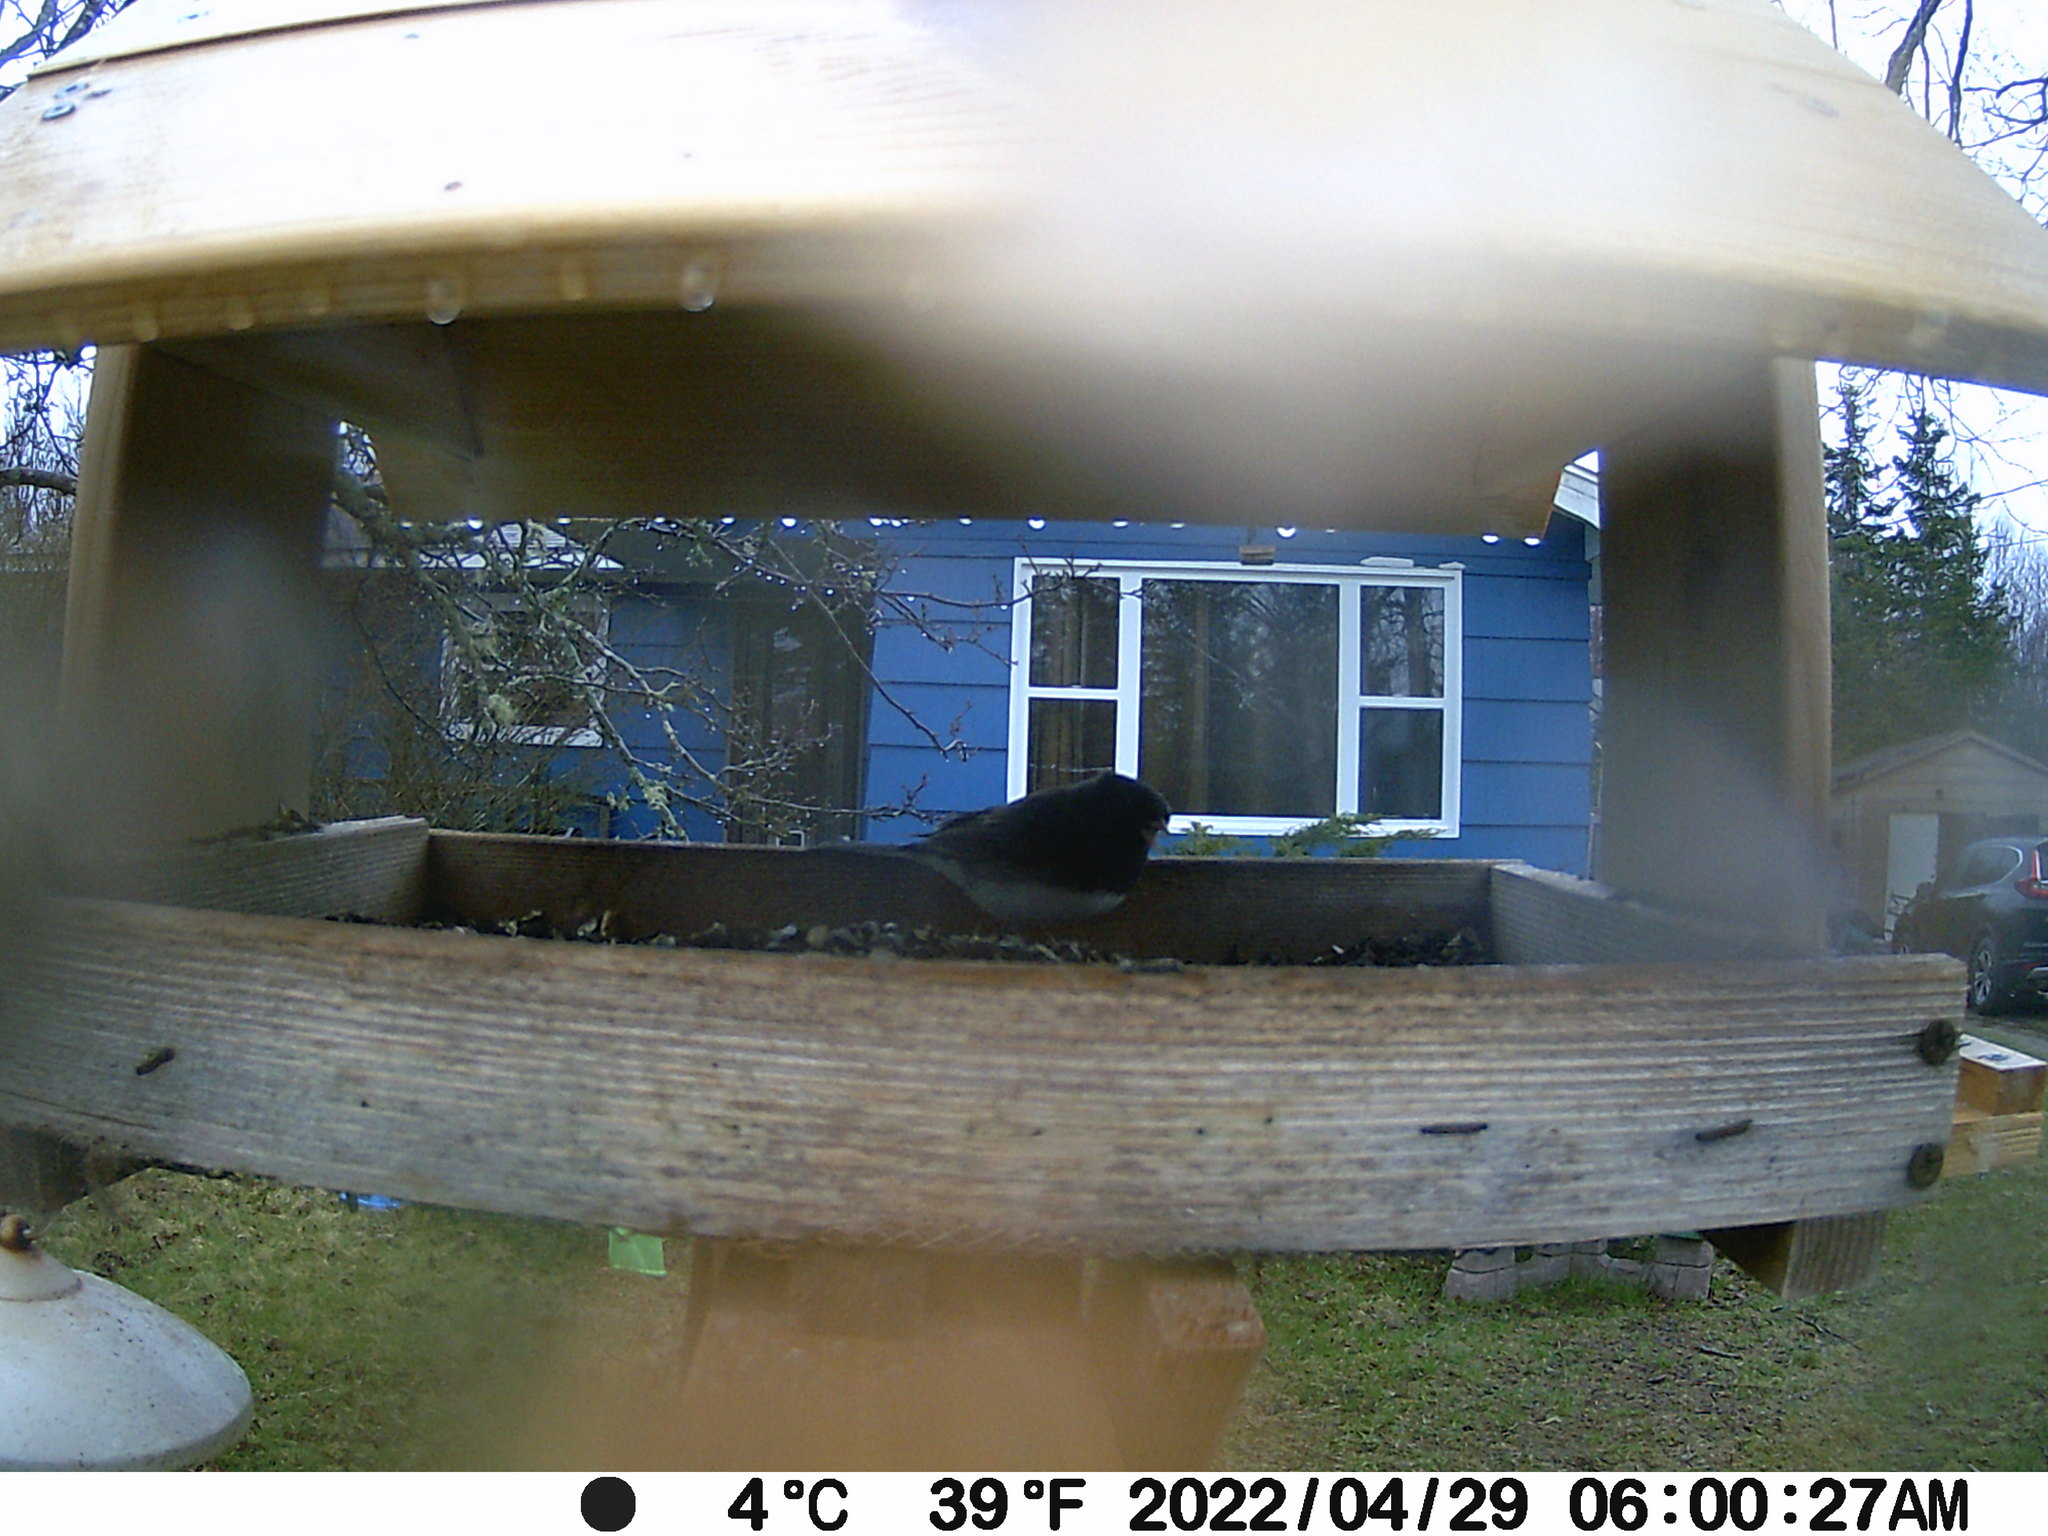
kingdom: Animalia
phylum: Chordata
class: Aves
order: Passeriformes
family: Passerellidae
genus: Junco
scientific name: Junco hyemalis
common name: Dark-eyed junco
